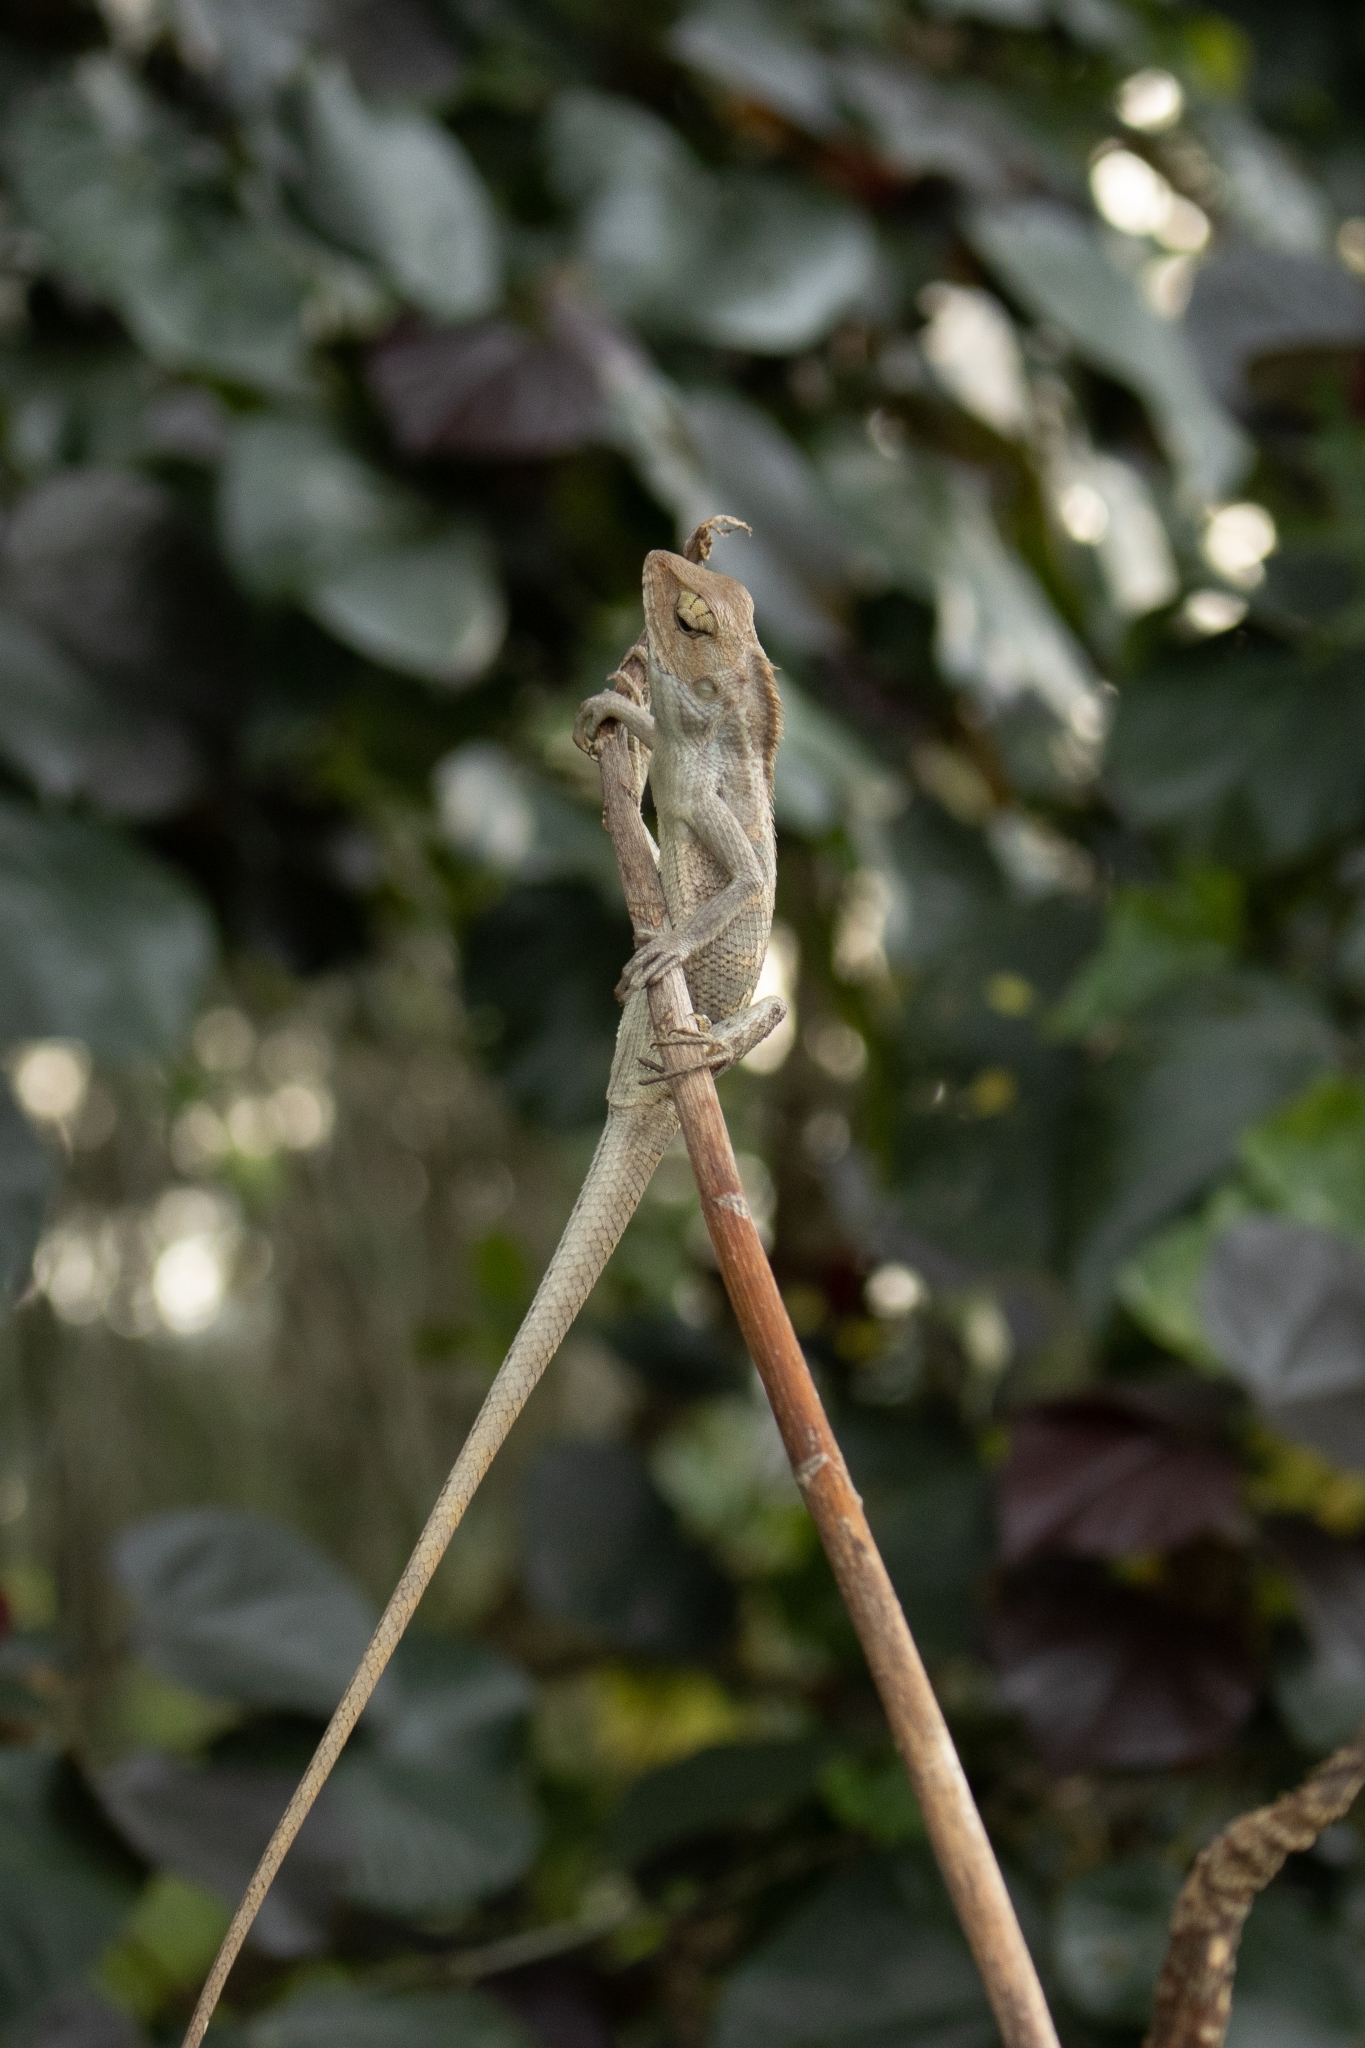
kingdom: Animalia
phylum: Chordata
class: Squamata
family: Agamidae
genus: Calotes
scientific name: Calotes versicolor
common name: Oriental garden lizard
